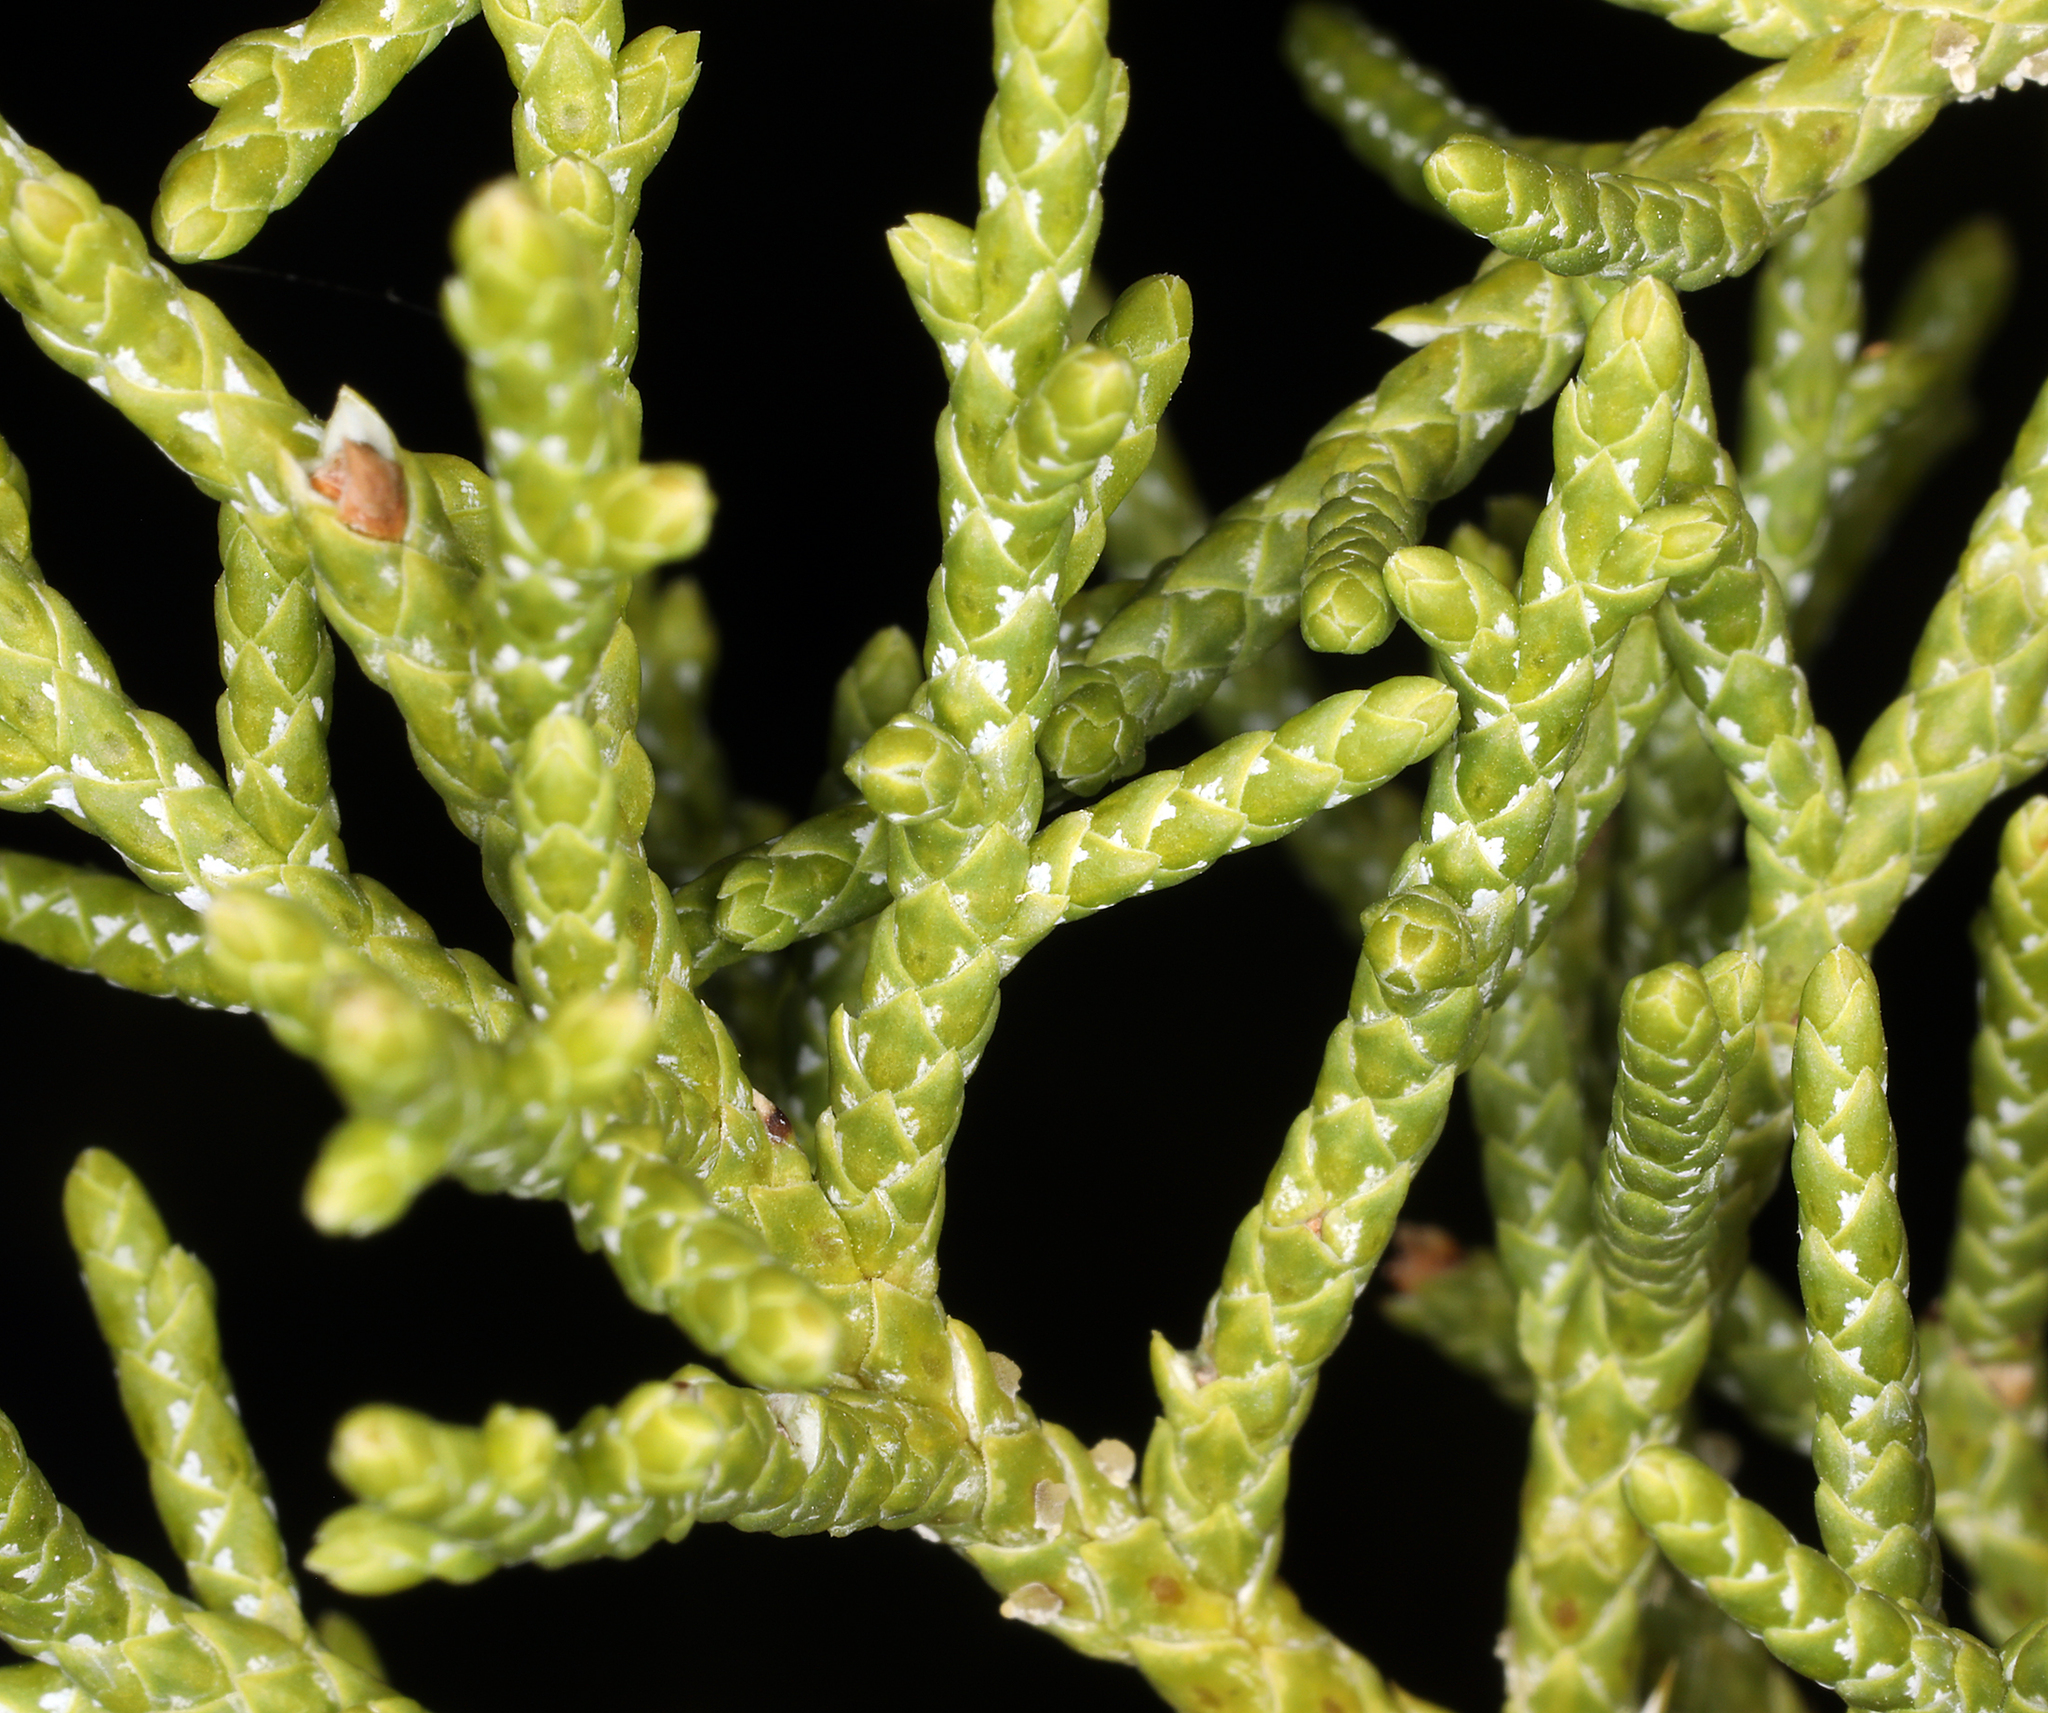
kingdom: Plantae
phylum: Tracheophyta
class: Pinopsida
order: Pinales
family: Cupressaceae
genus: Juniperus
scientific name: Juniperus osteosperma
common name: Utah juniper
